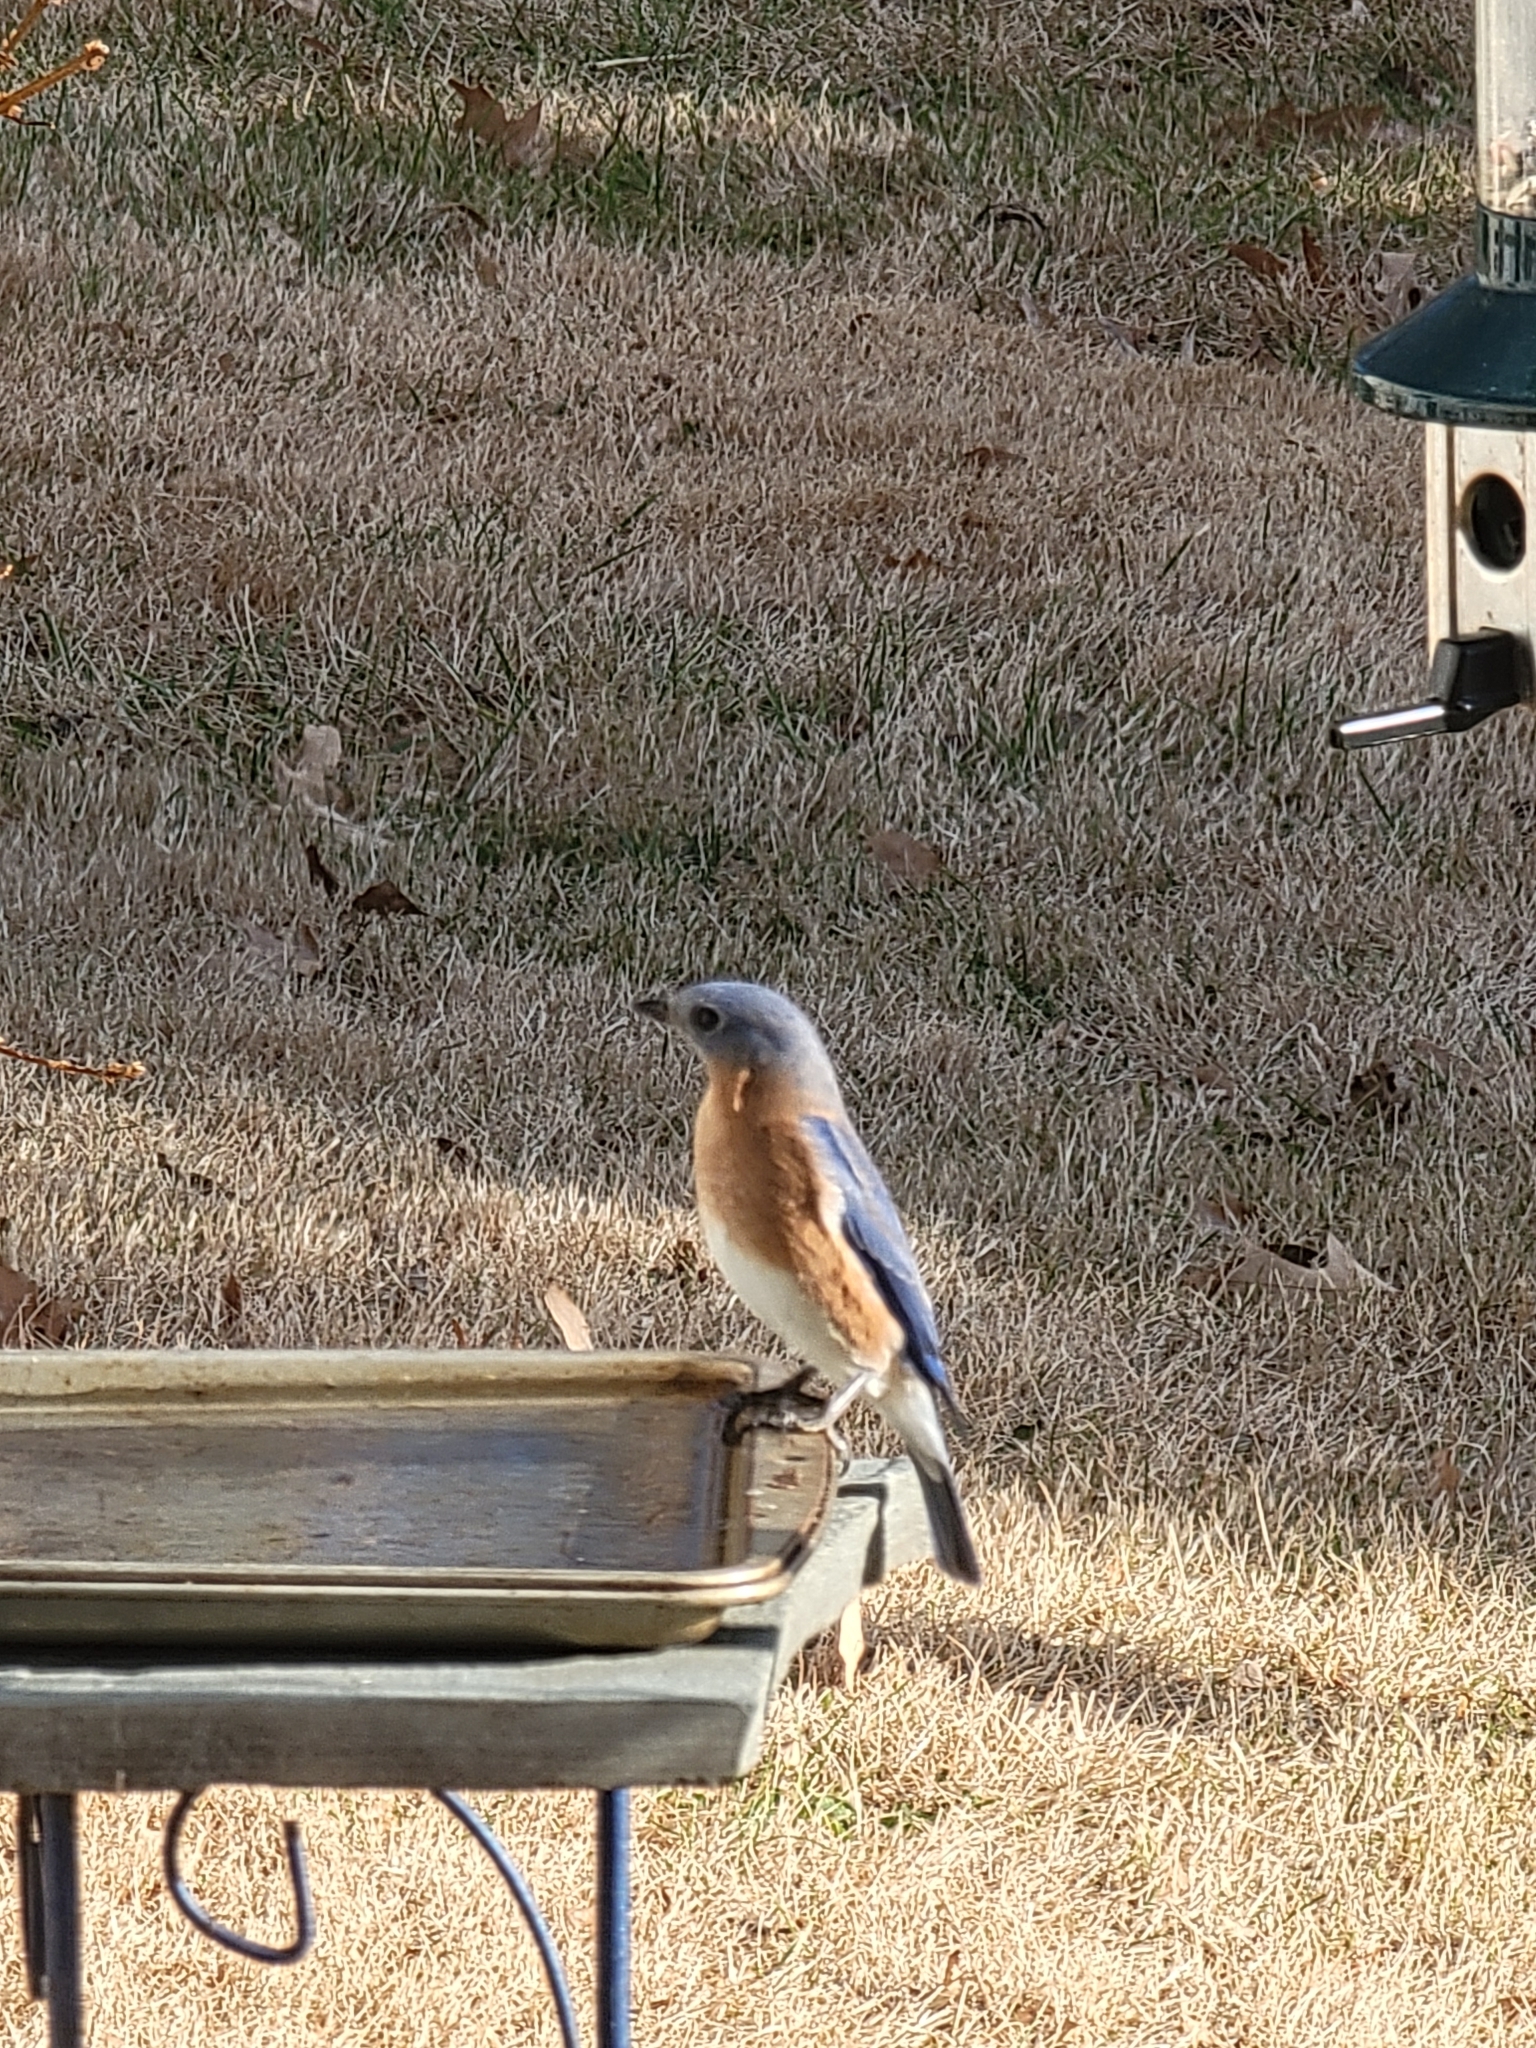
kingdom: Animalia
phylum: Chordata
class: Aves
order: Passeriformes
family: Turdidae
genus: Sialia
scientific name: Sialia sialis
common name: Eastern bluebird
